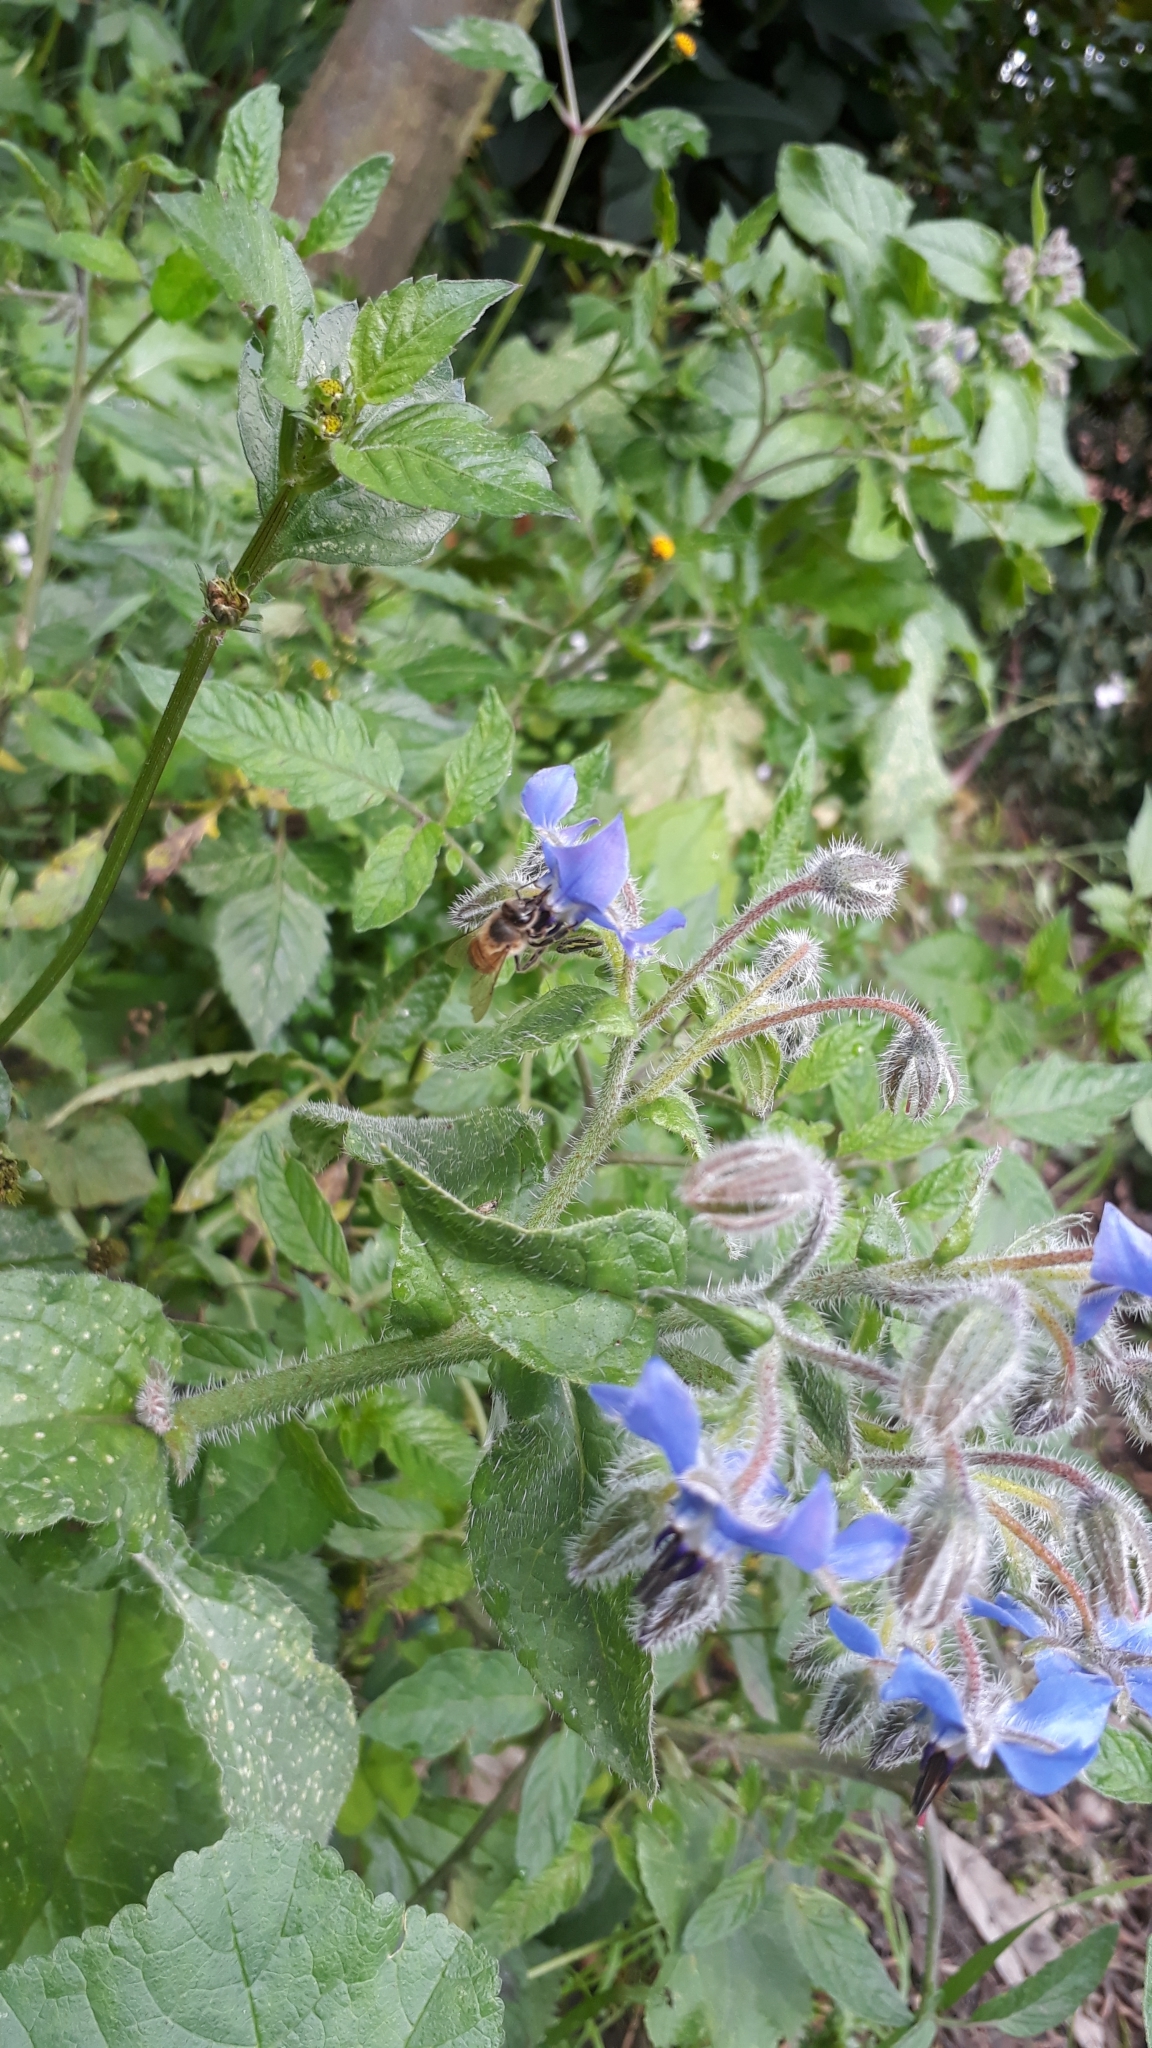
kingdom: Animalia
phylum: Arthropoda
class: Insecta
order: Hymenoptera
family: Apidae
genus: Apis
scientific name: Apis mellifera
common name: Honey bee
